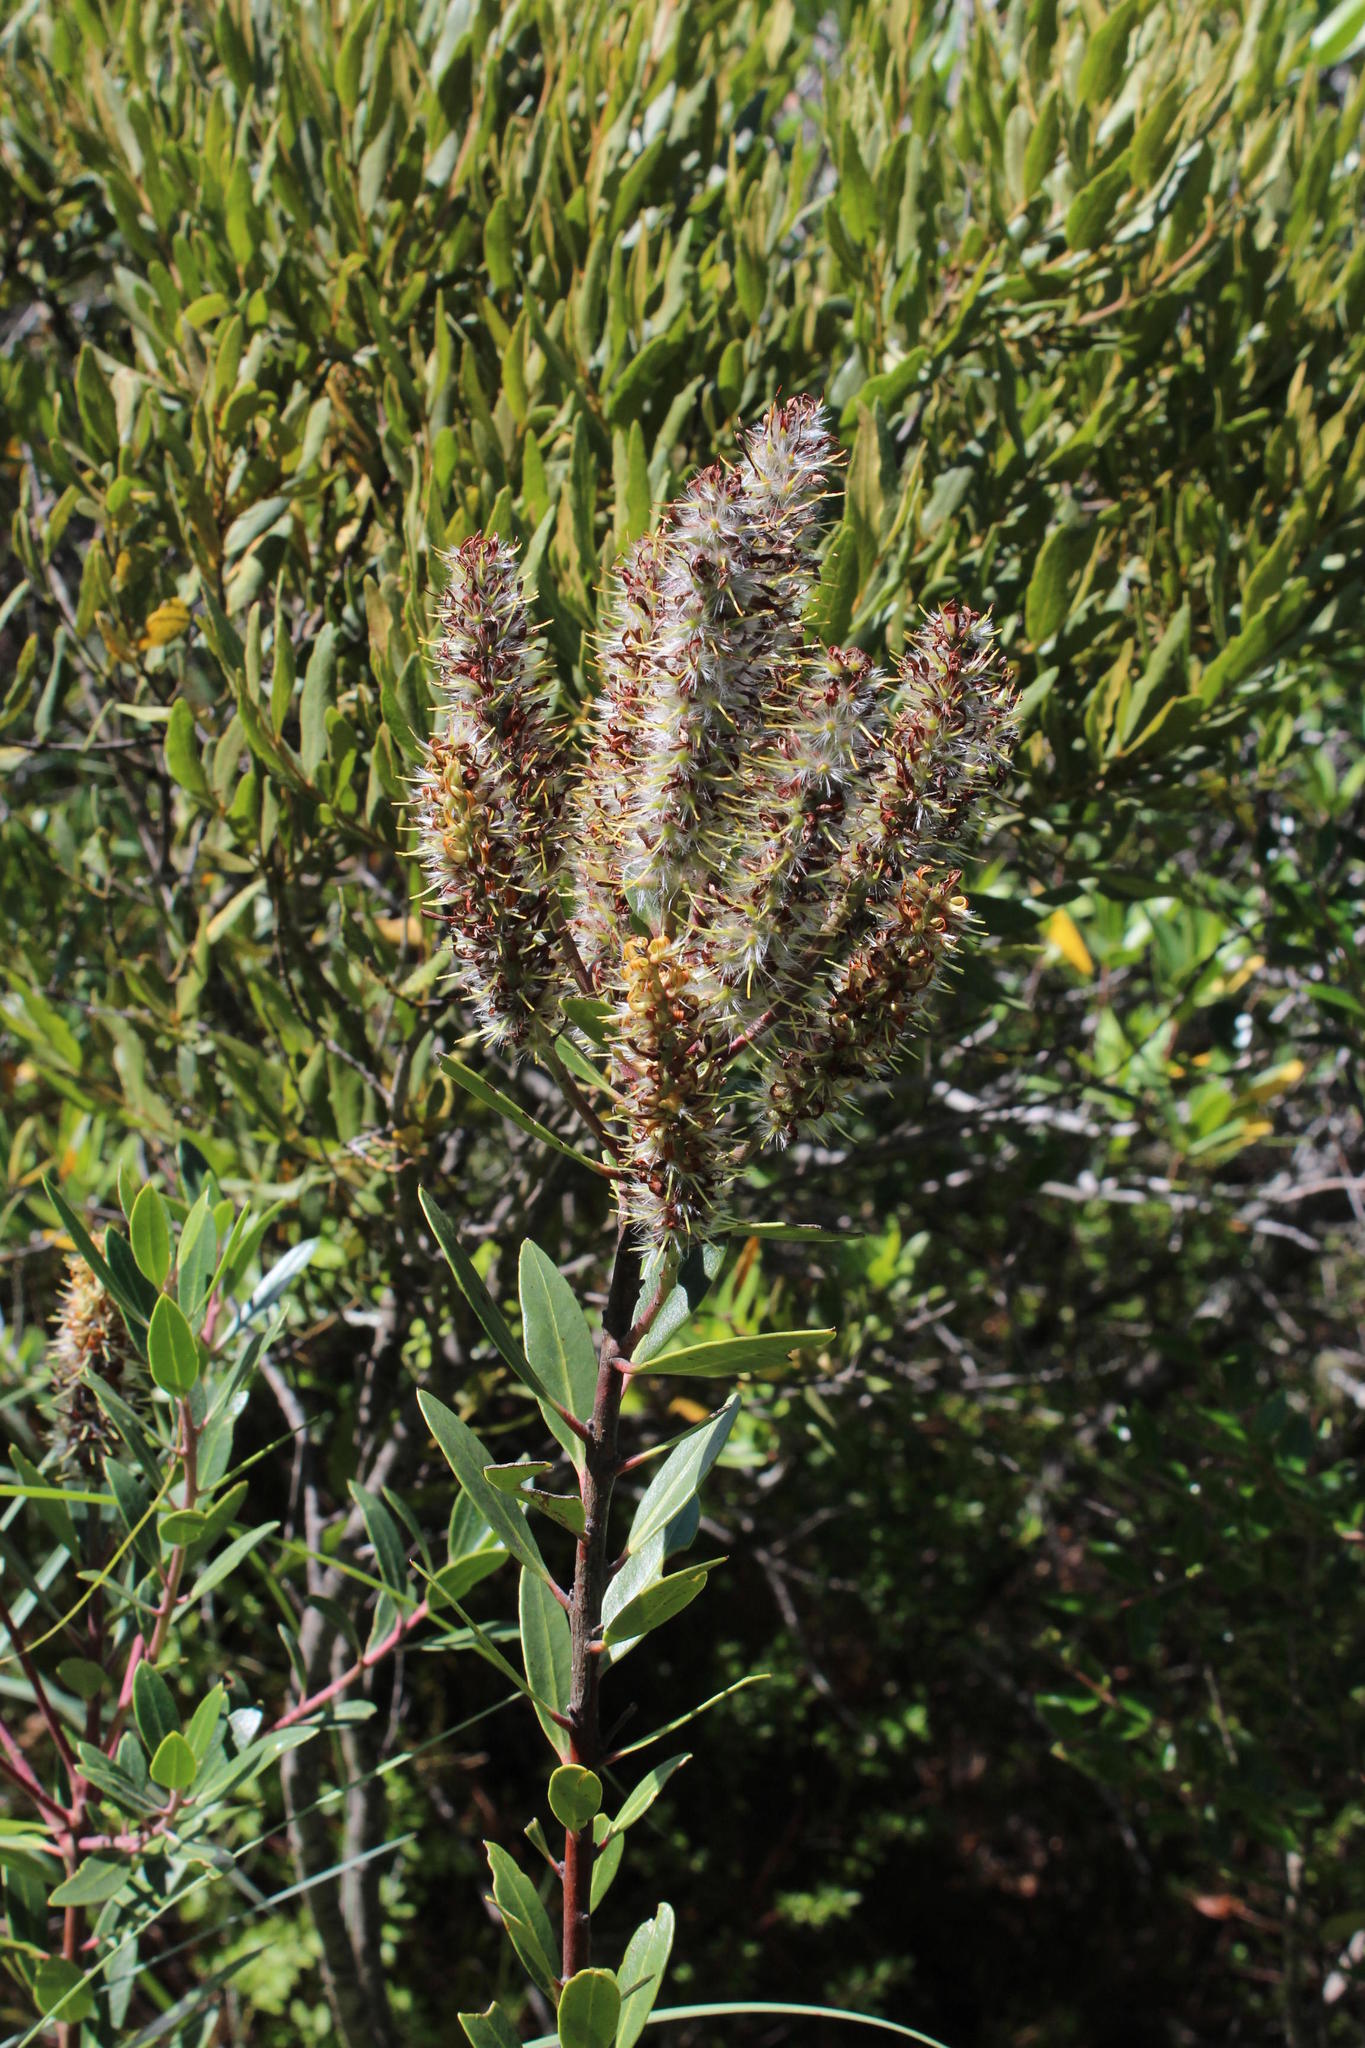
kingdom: Plantae
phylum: Tracheophyta
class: Magnoliopsida
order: Proteales
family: Proteaceae
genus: Faurea
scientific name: Faurea recondita
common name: Kamdeboo beechwood
